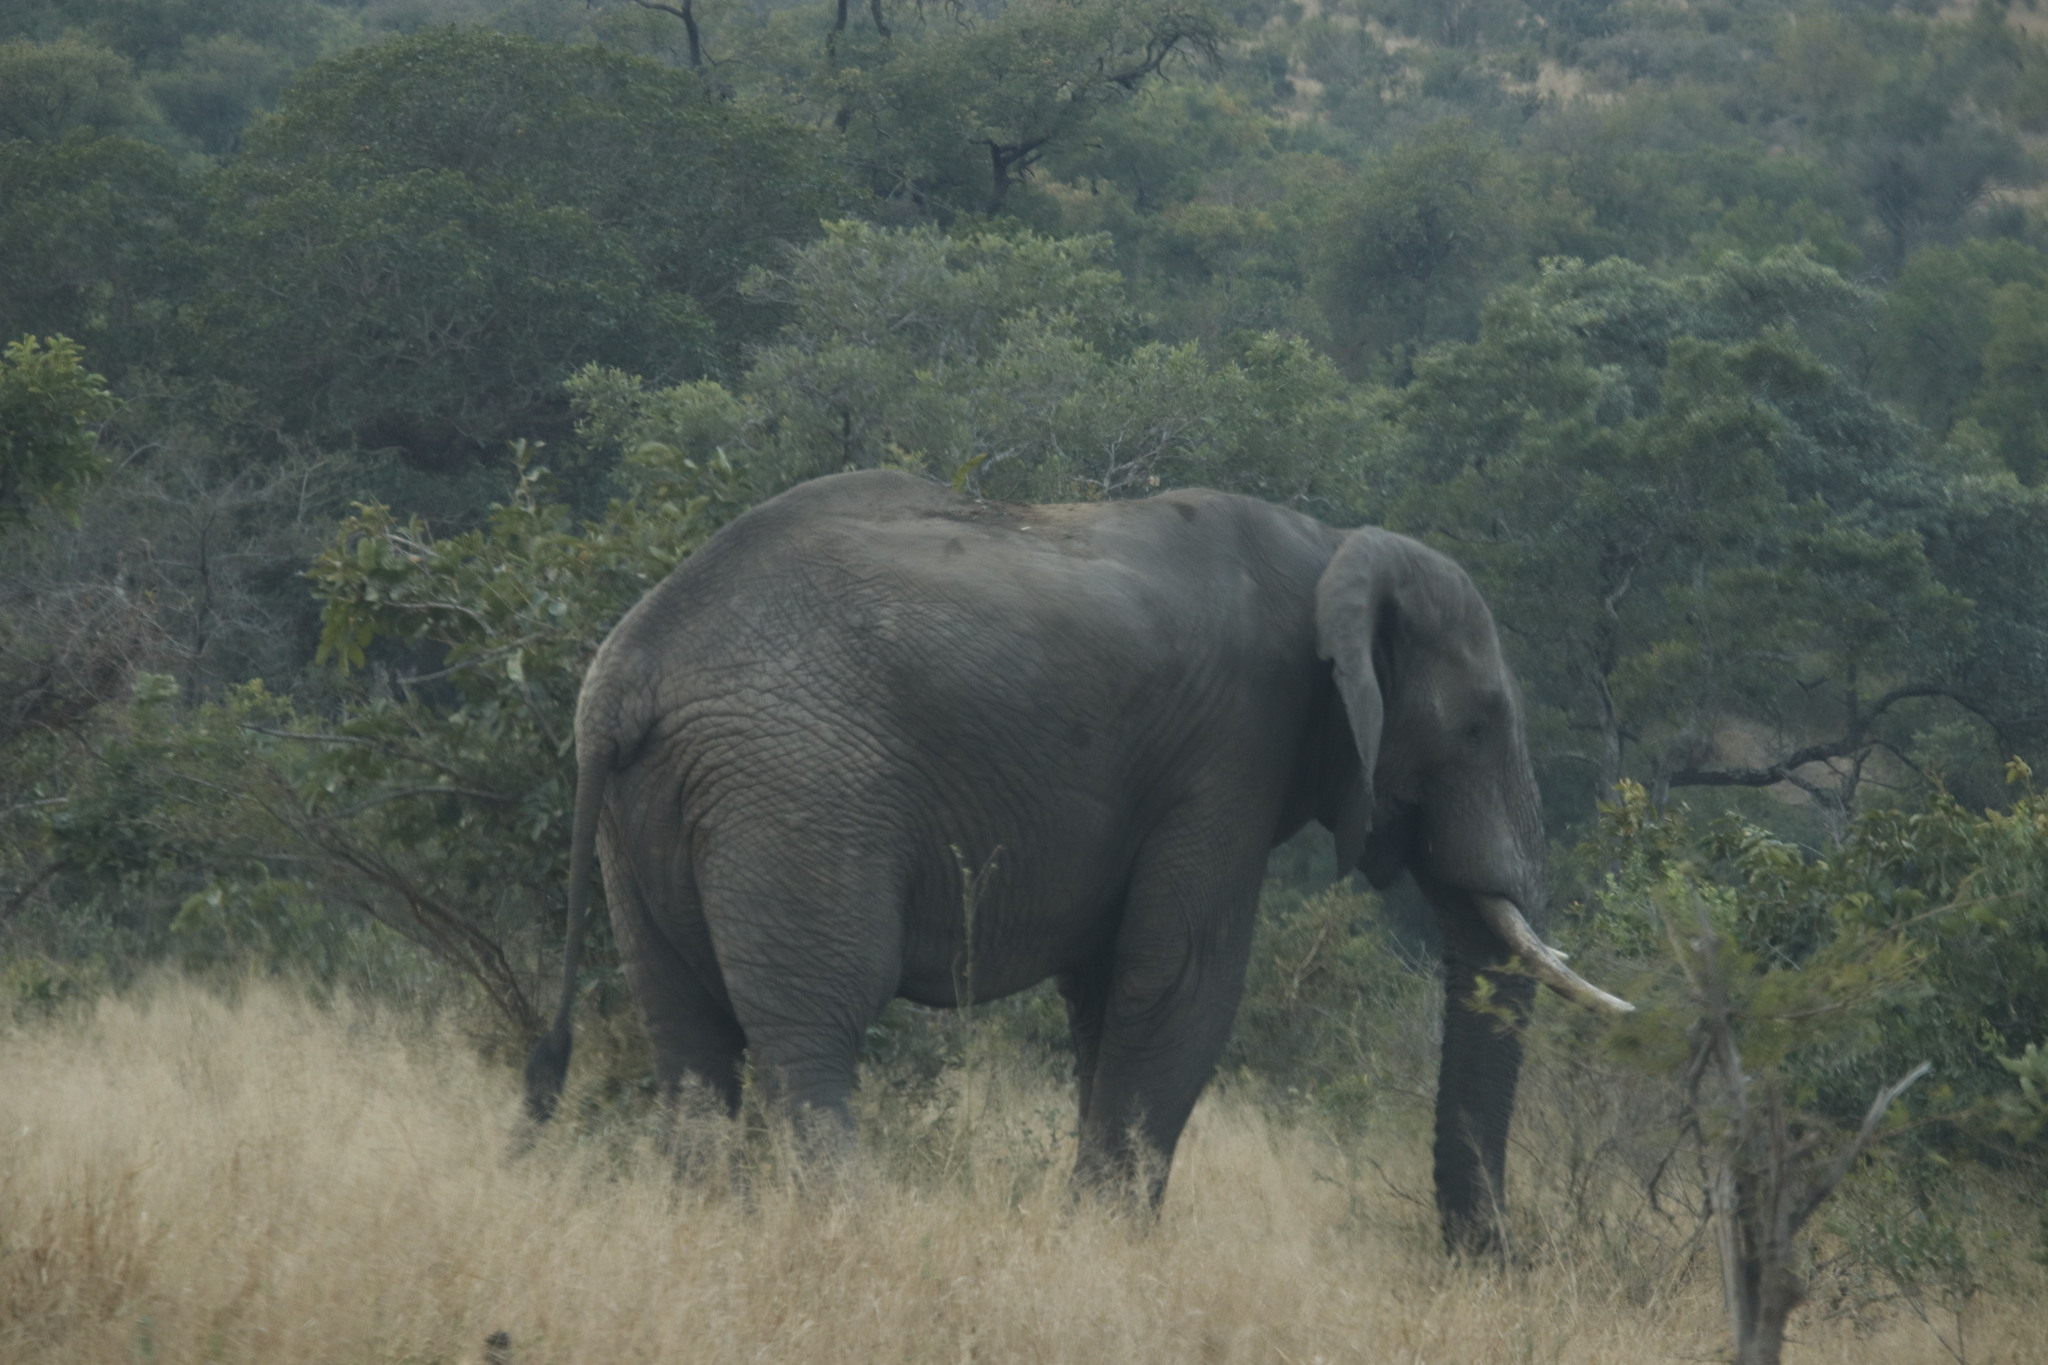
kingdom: Animalia
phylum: Chordata
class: Mammalia
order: Proboscidea
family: Elephantidae
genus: Loxodonta
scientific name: Loxodonta africana
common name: African elephant
